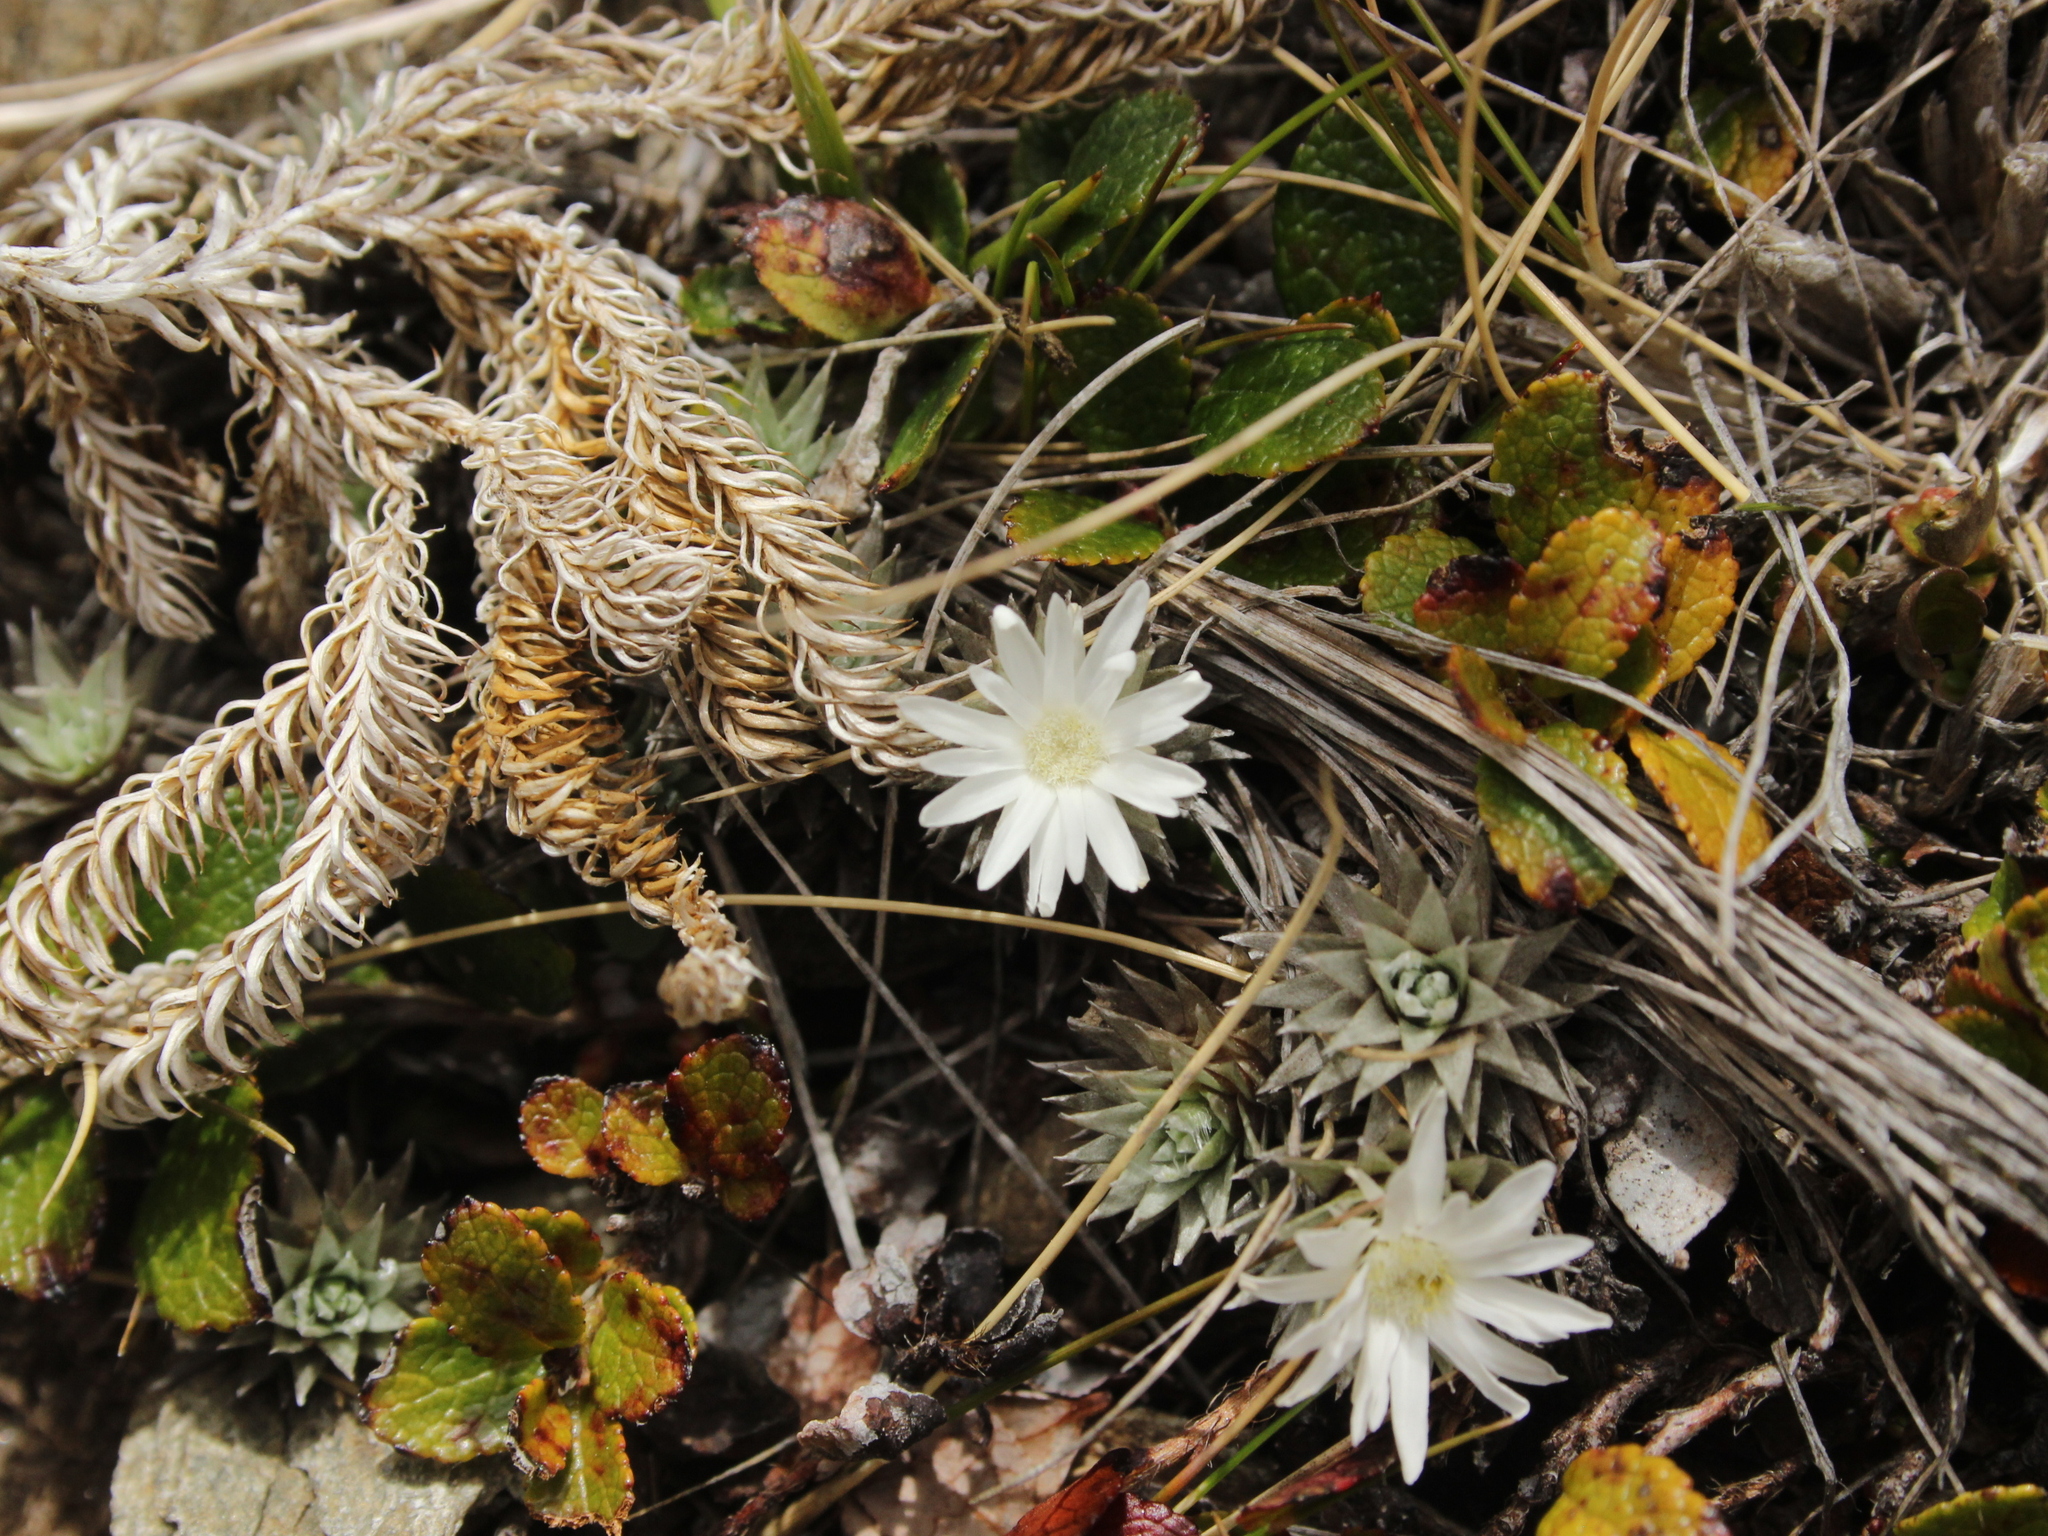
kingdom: Plantae
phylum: Tracheophyta
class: Magnoliopsida
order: Asterales
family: Asteraceae
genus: Raoulia
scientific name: Raoulia grandiflora
